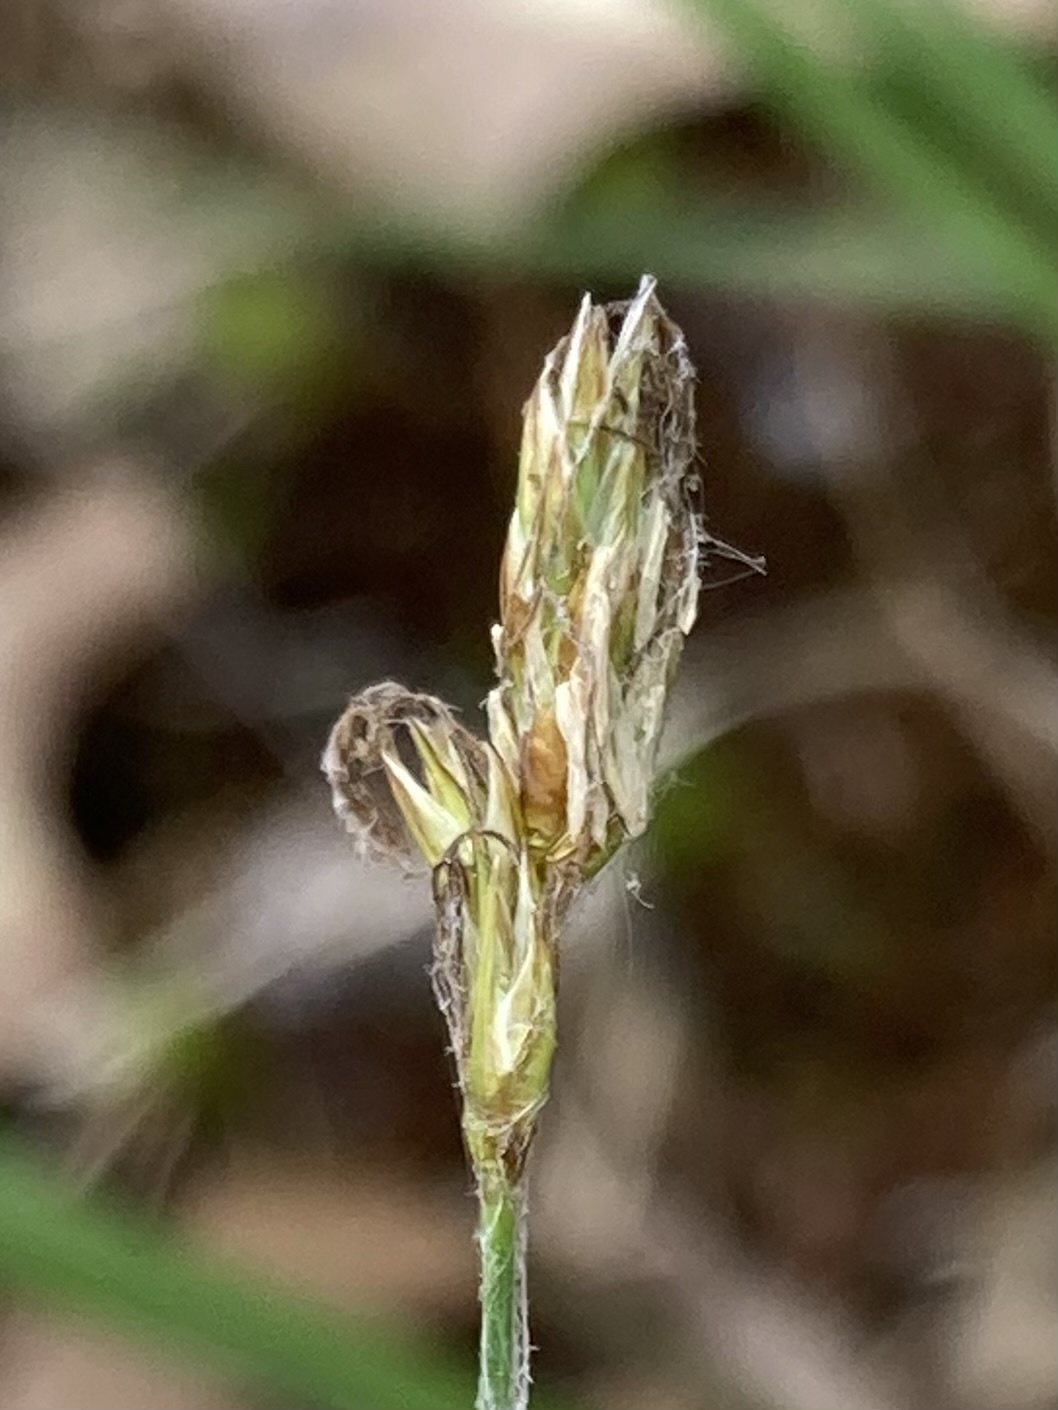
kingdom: Plantae
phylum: Tracheophyta
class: Liliopsida
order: Poales
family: Cyperaceae
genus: Carex
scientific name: Carex siccata
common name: Dry sedge
